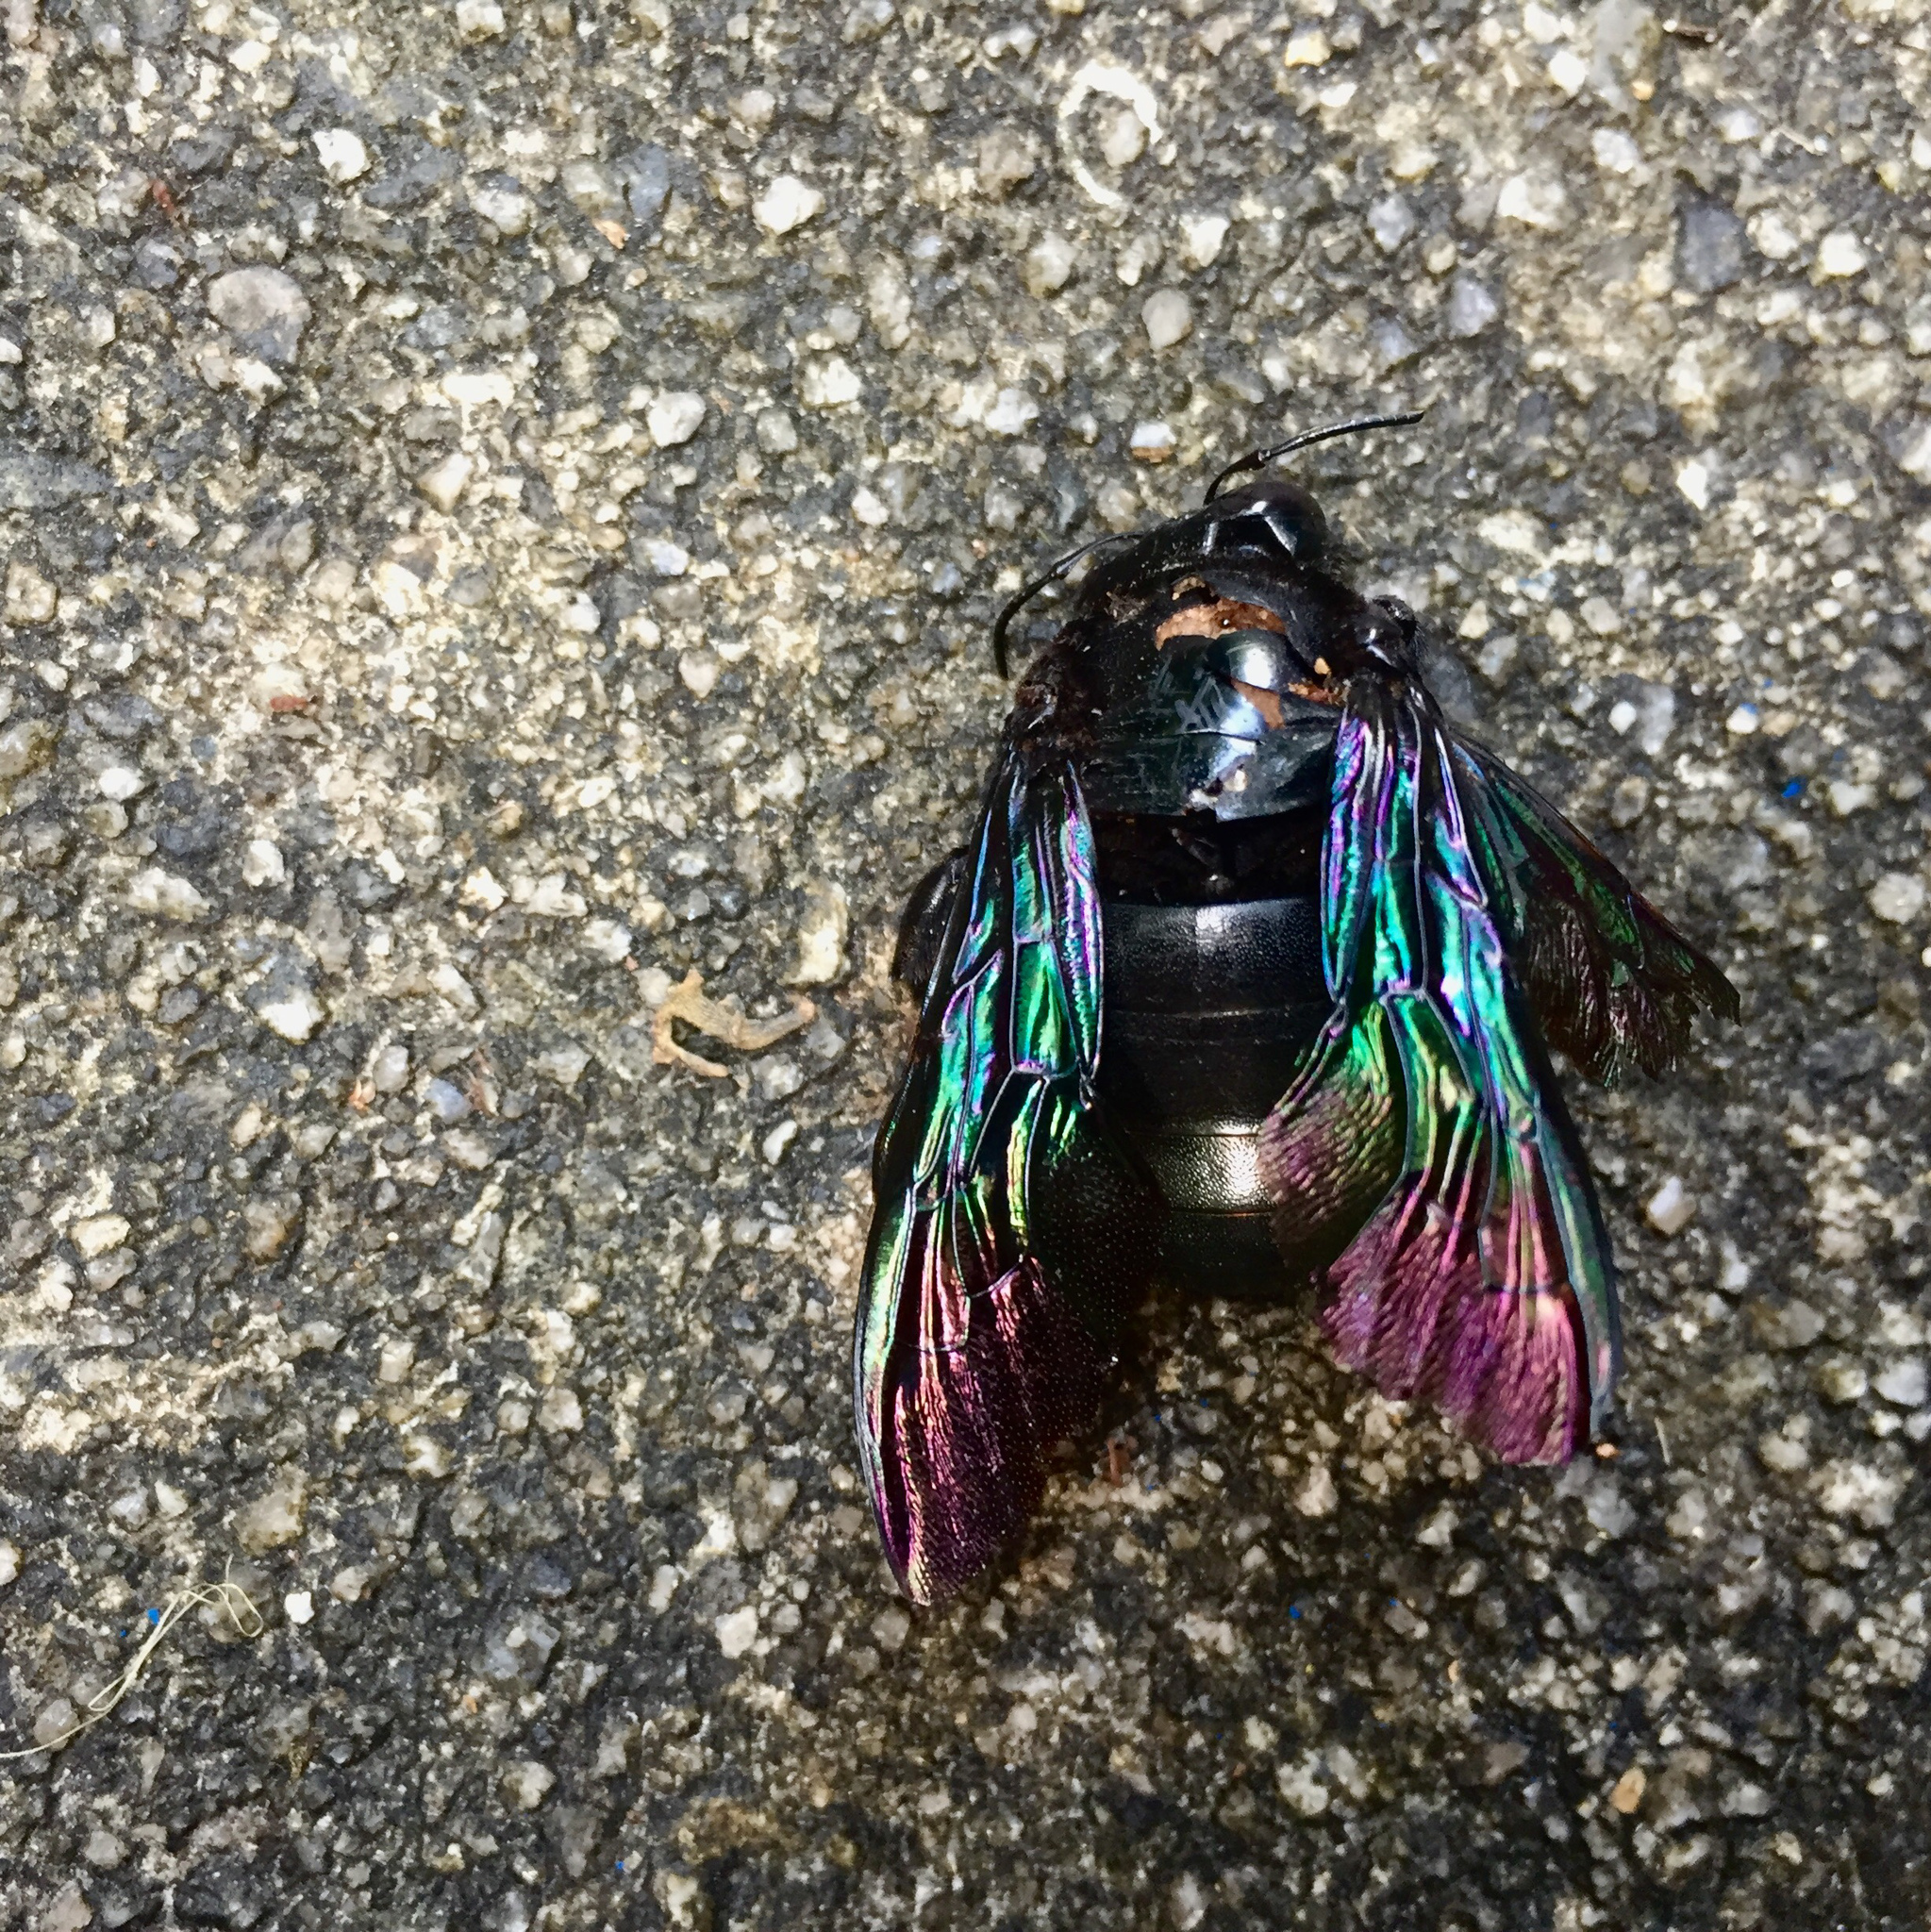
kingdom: Animalia
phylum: Arthropoda
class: Insecta
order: Hymenoptera
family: Apidae
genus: Xylocopa
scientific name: Xylocopa latipes
